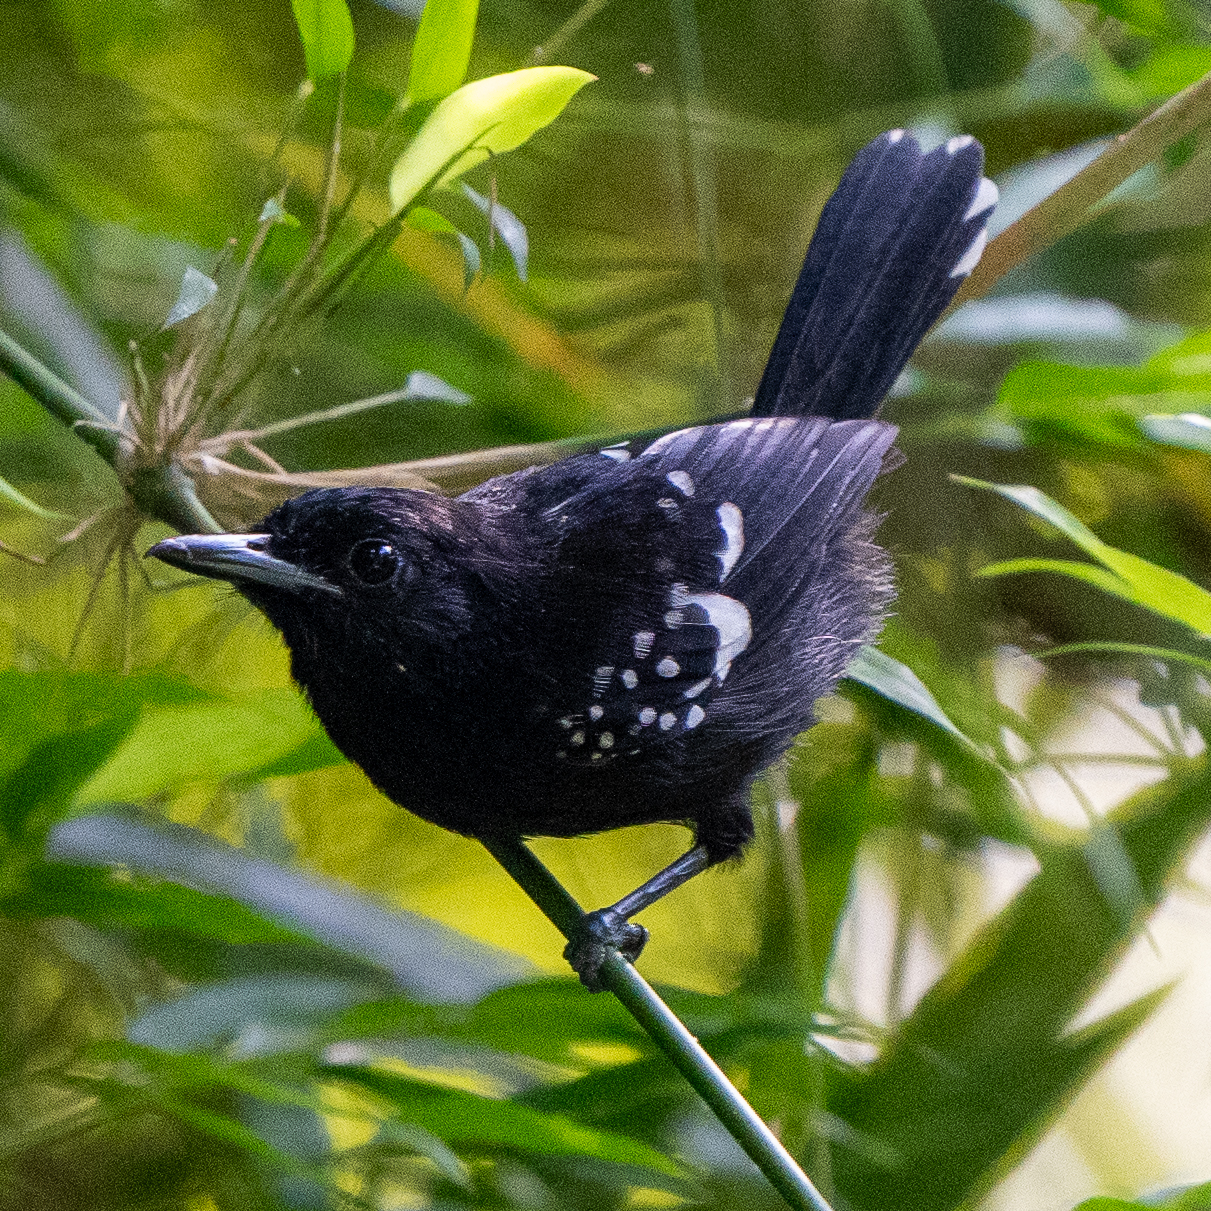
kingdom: Animalia
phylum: Chordata
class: Aves
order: Passeriformes
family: Thamnophilidae
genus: Microrhopias
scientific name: Microrhopias quixensis
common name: Dot-winged antwren
